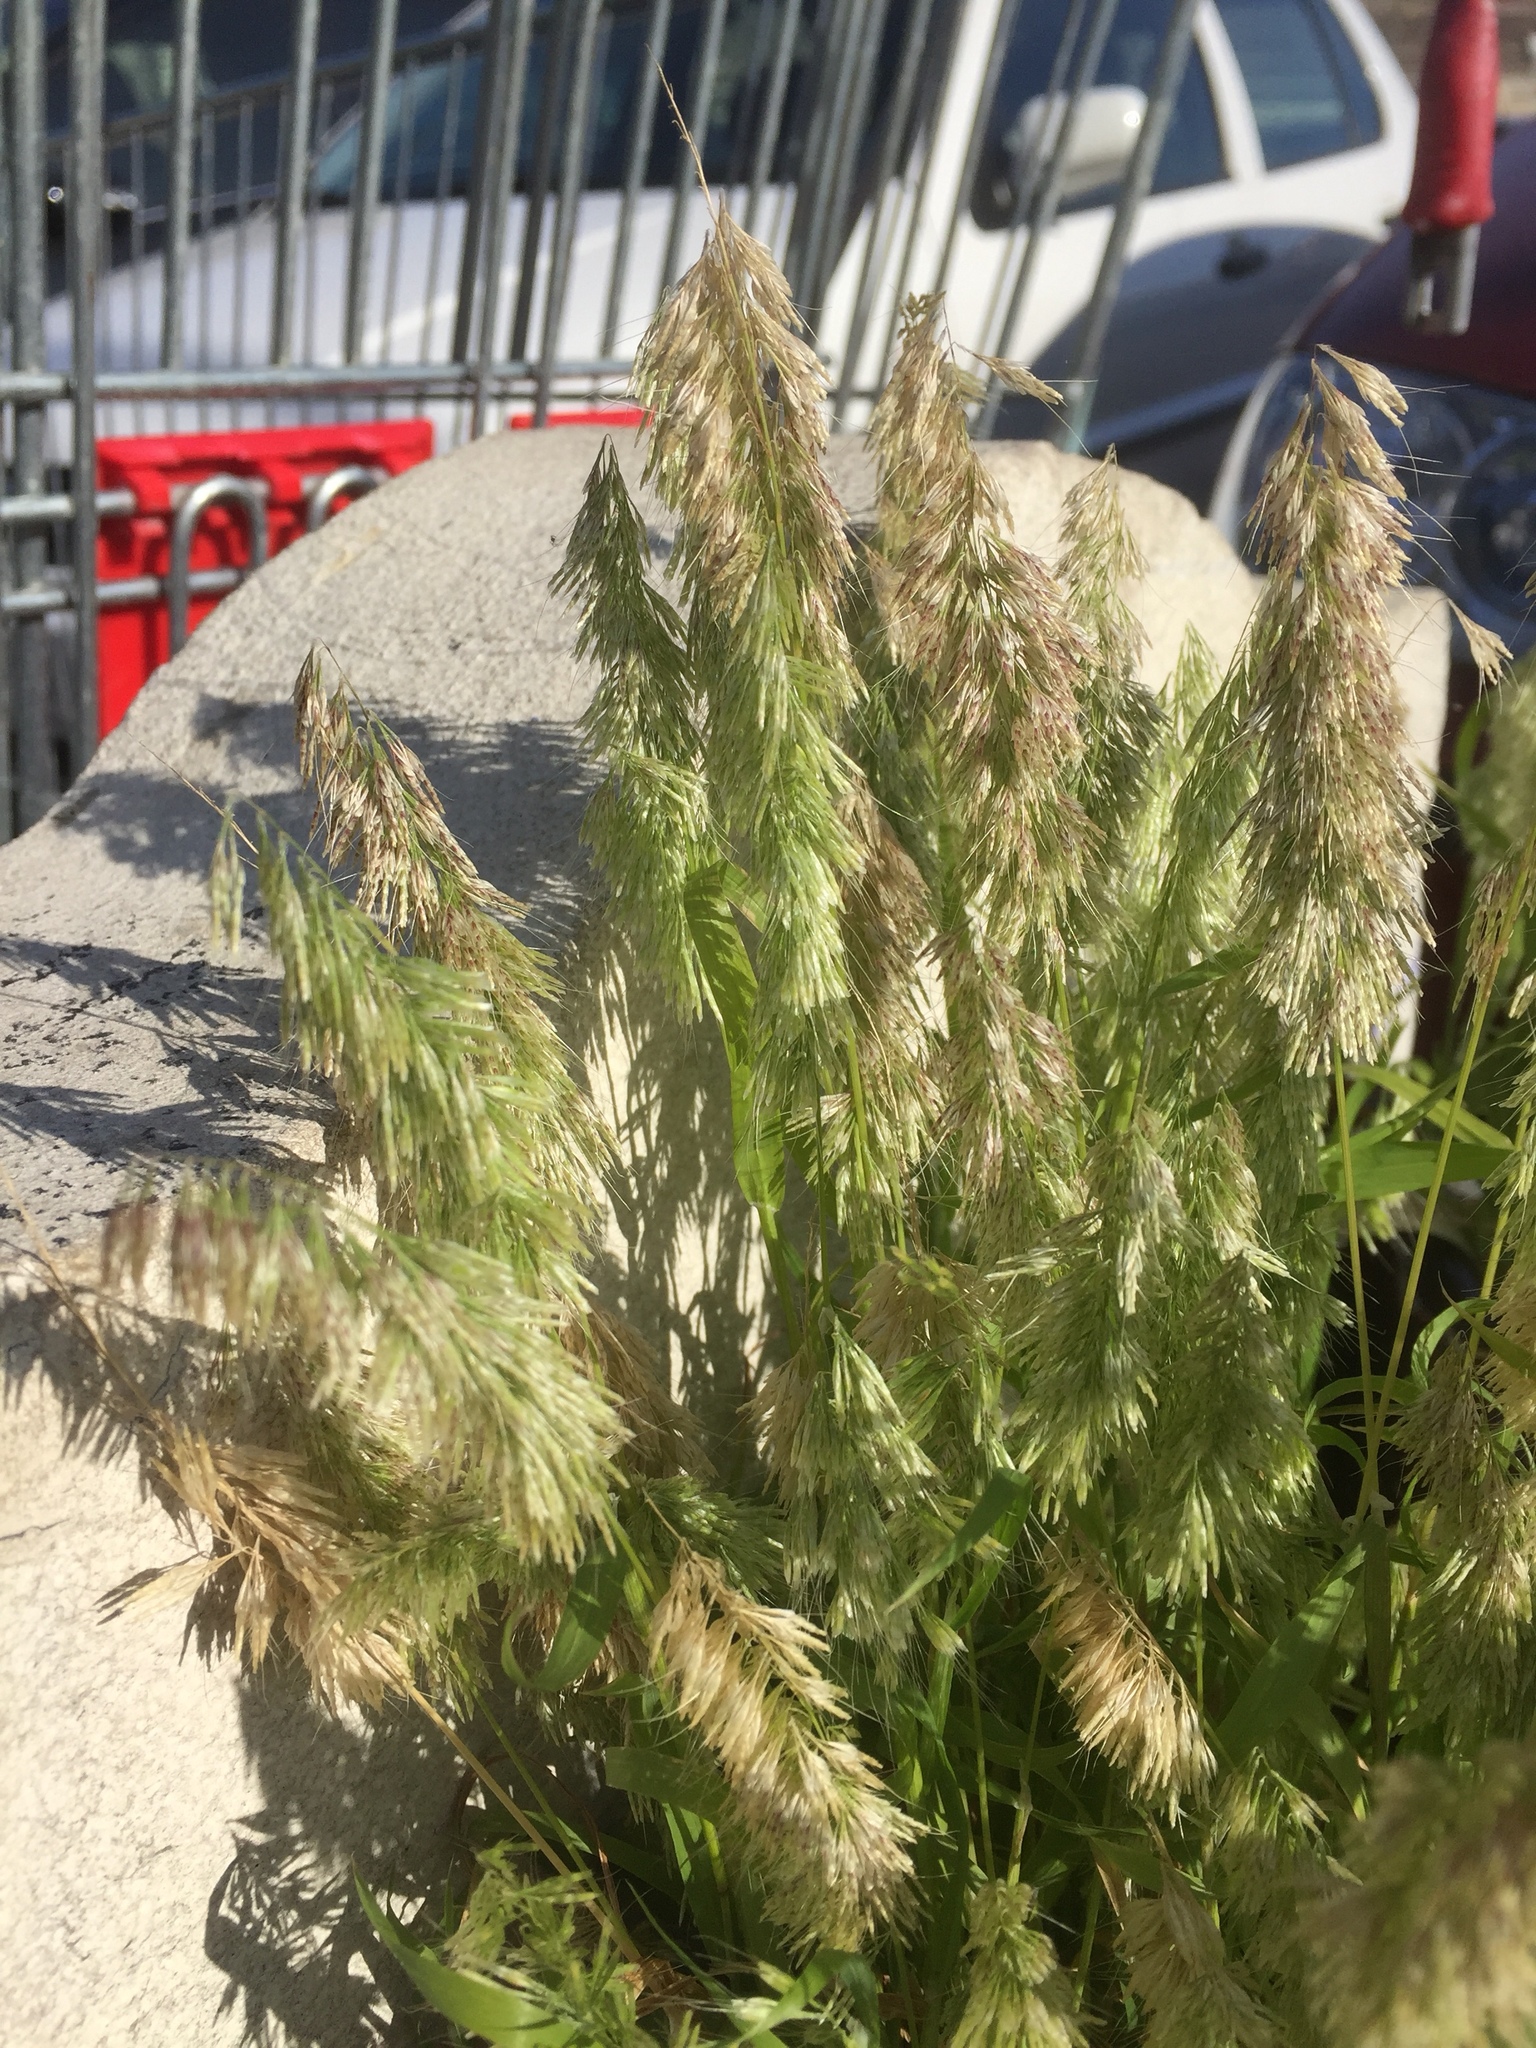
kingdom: Plantae
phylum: Tracheophyta
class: Liliopsida
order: Poales
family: Poaceae
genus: Lamarckia
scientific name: Lamarckia aurea
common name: Golden dog's-tail
